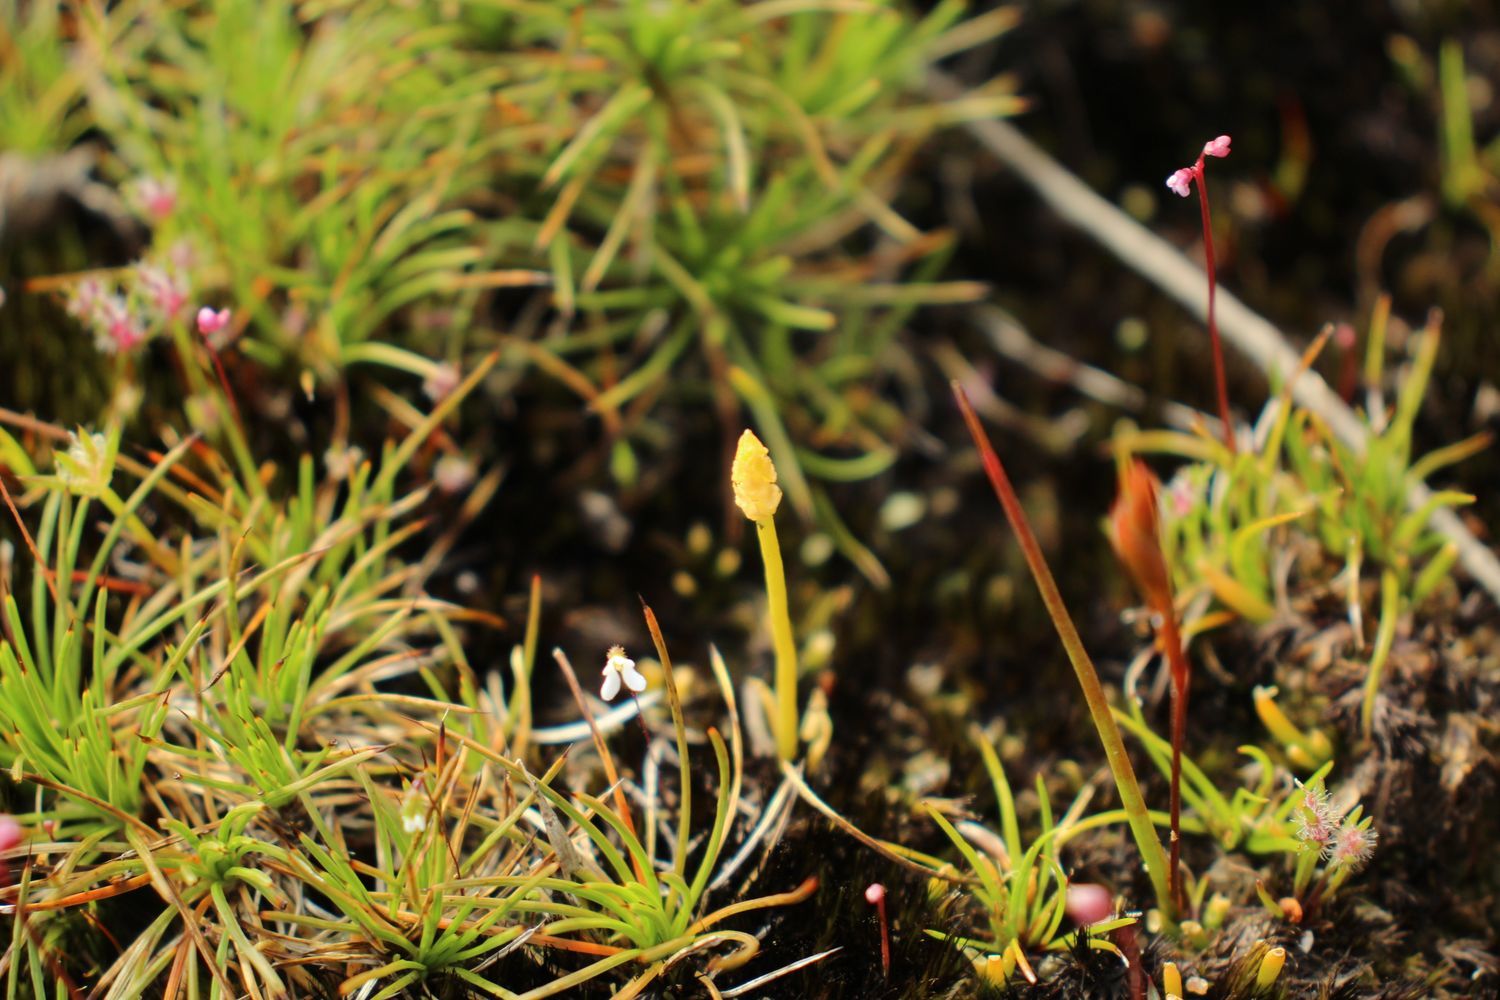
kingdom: Plantae
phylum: Tracheophyta
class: Lycopodiopsida
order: Lycopodiales
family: Lycopodiaceae
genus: Phylloglossum
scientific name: Phylloglossum drummondii
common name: Pigmy-club-moss
